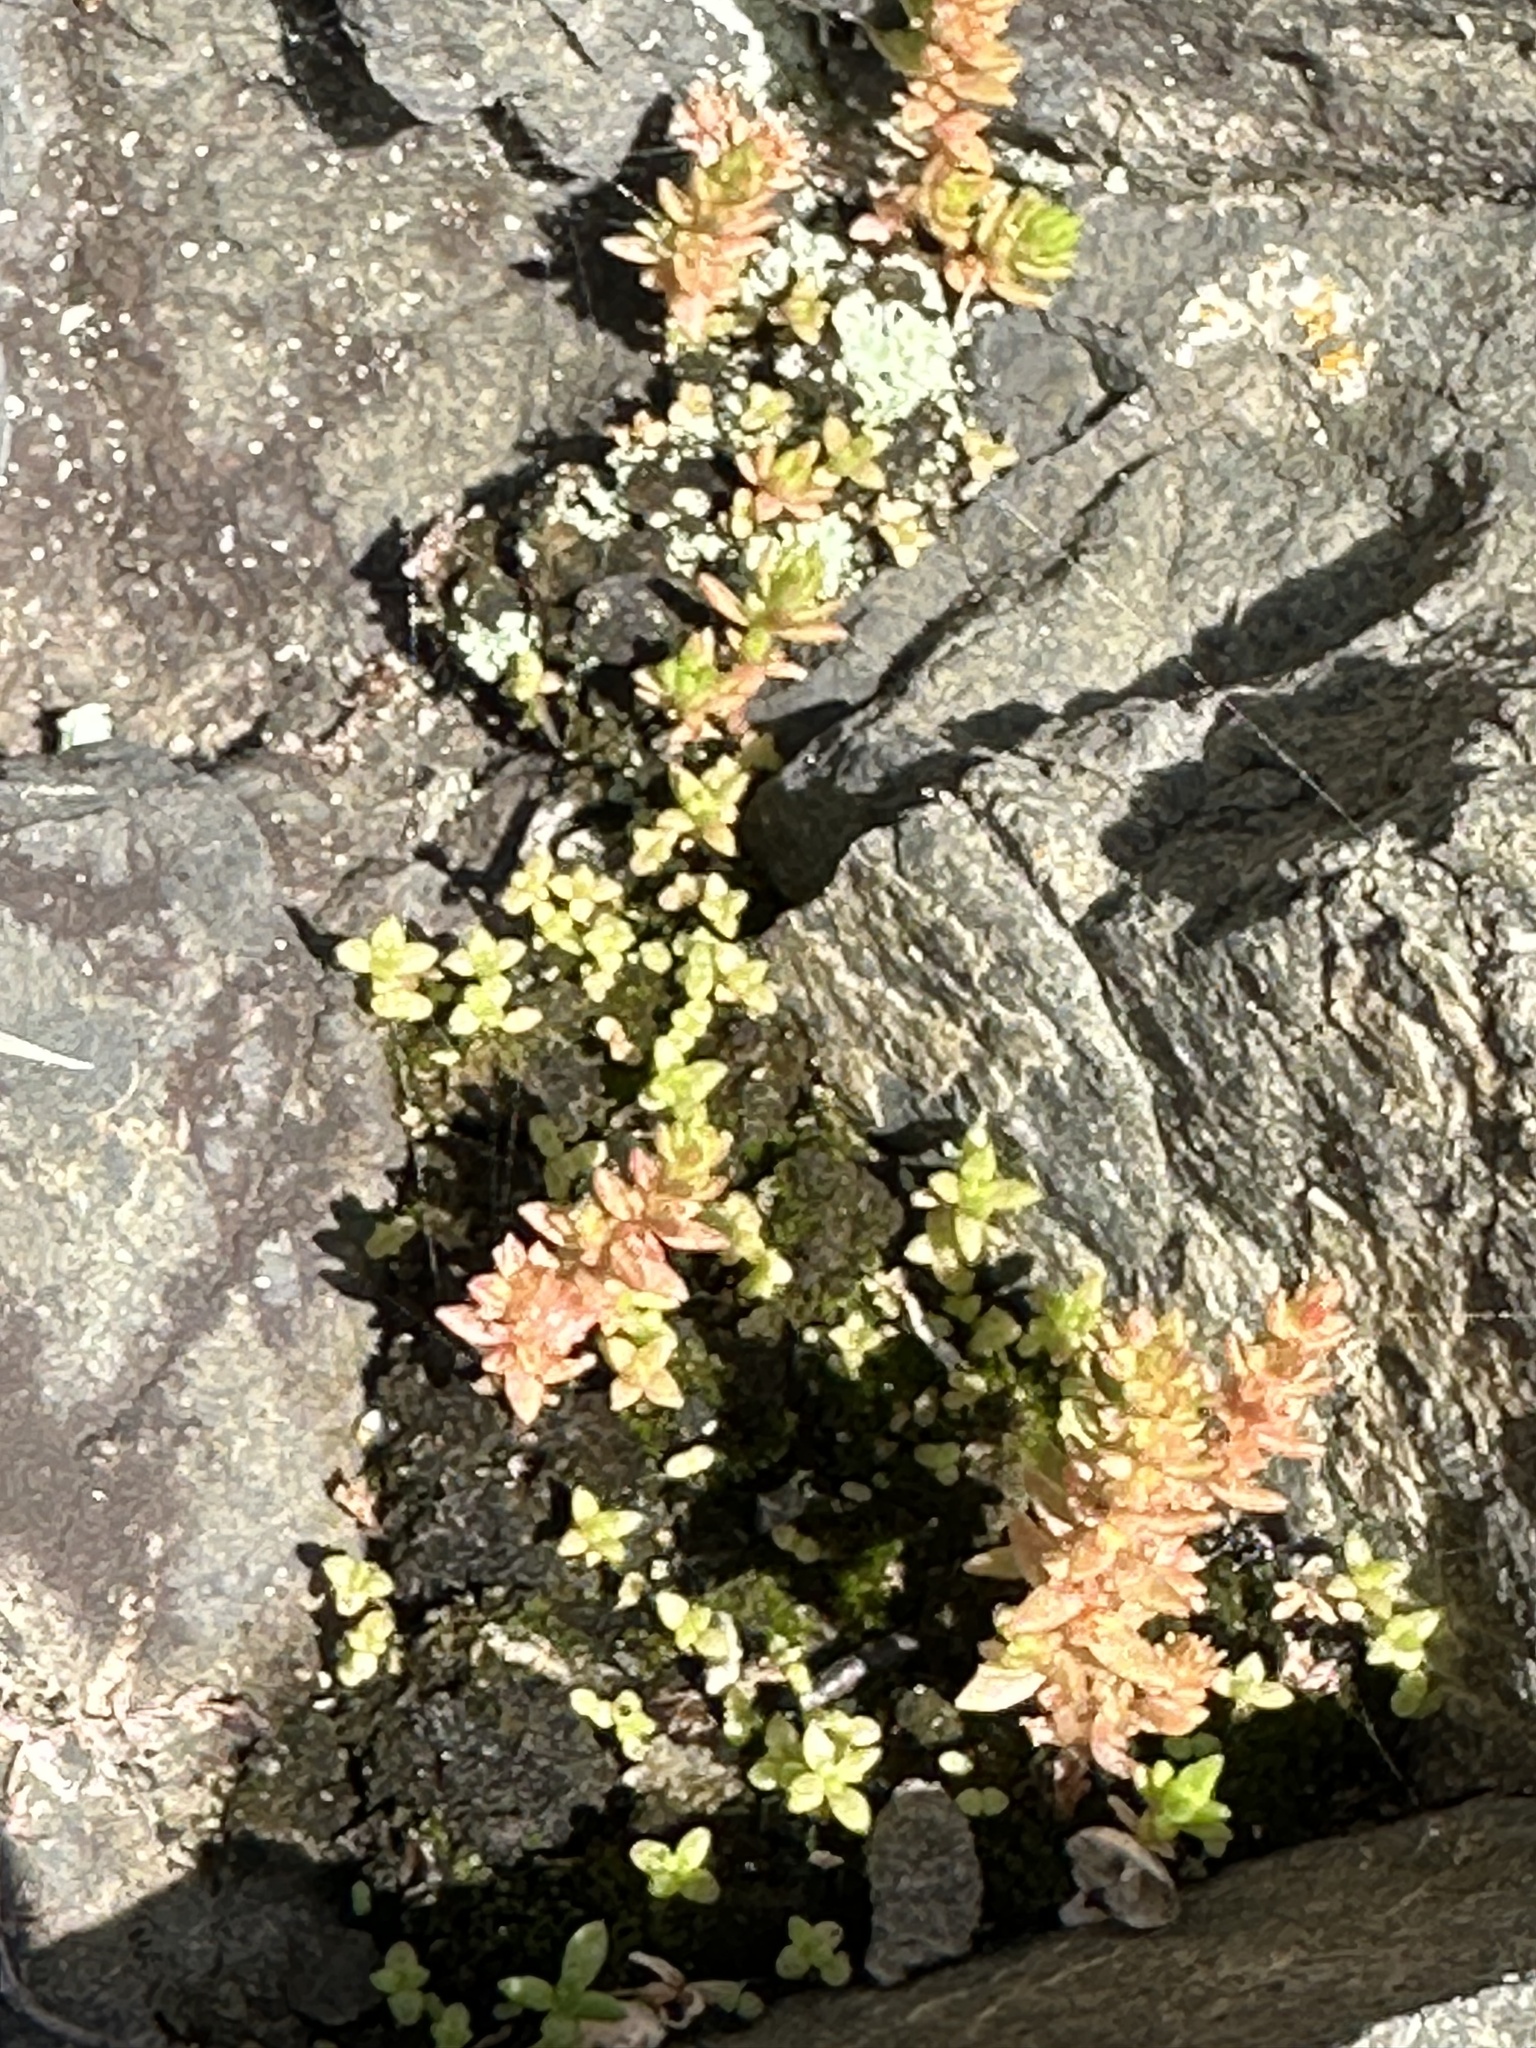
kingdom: Plantae
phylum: Tracheophyta
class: Magnoliopsida
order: Saxifragales
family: Crassulaceae
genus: Crassula
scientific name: Crassula sieberiana
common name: Siberian pygmyweed
